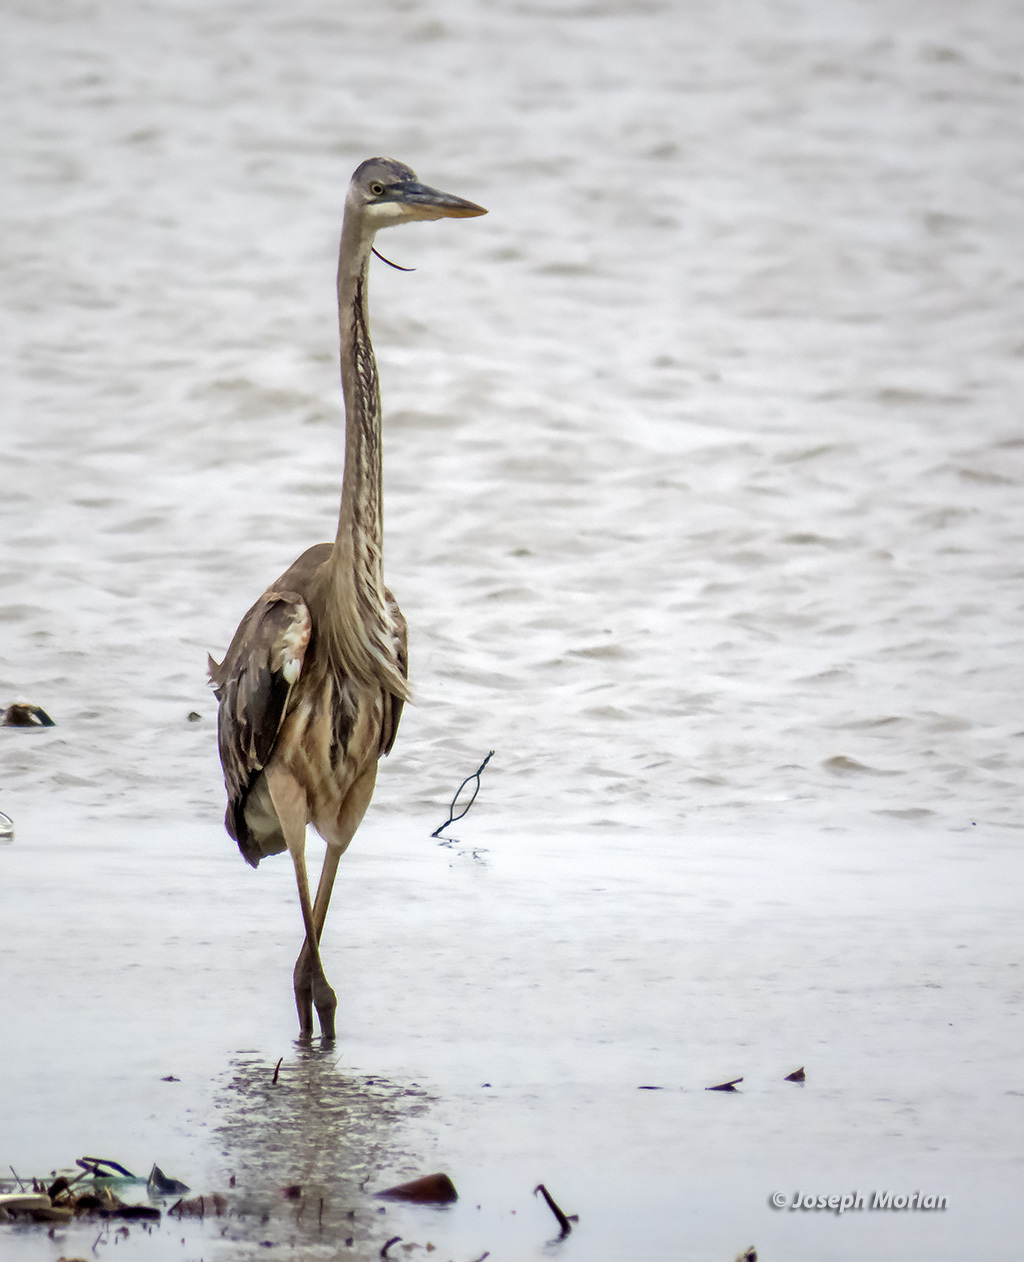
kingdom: Animalia
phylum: Chordata
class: Aves
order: Pelecaniformes
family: Ardeidae
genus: Ardea
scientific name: Ardea herodias
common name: Great blue heron
